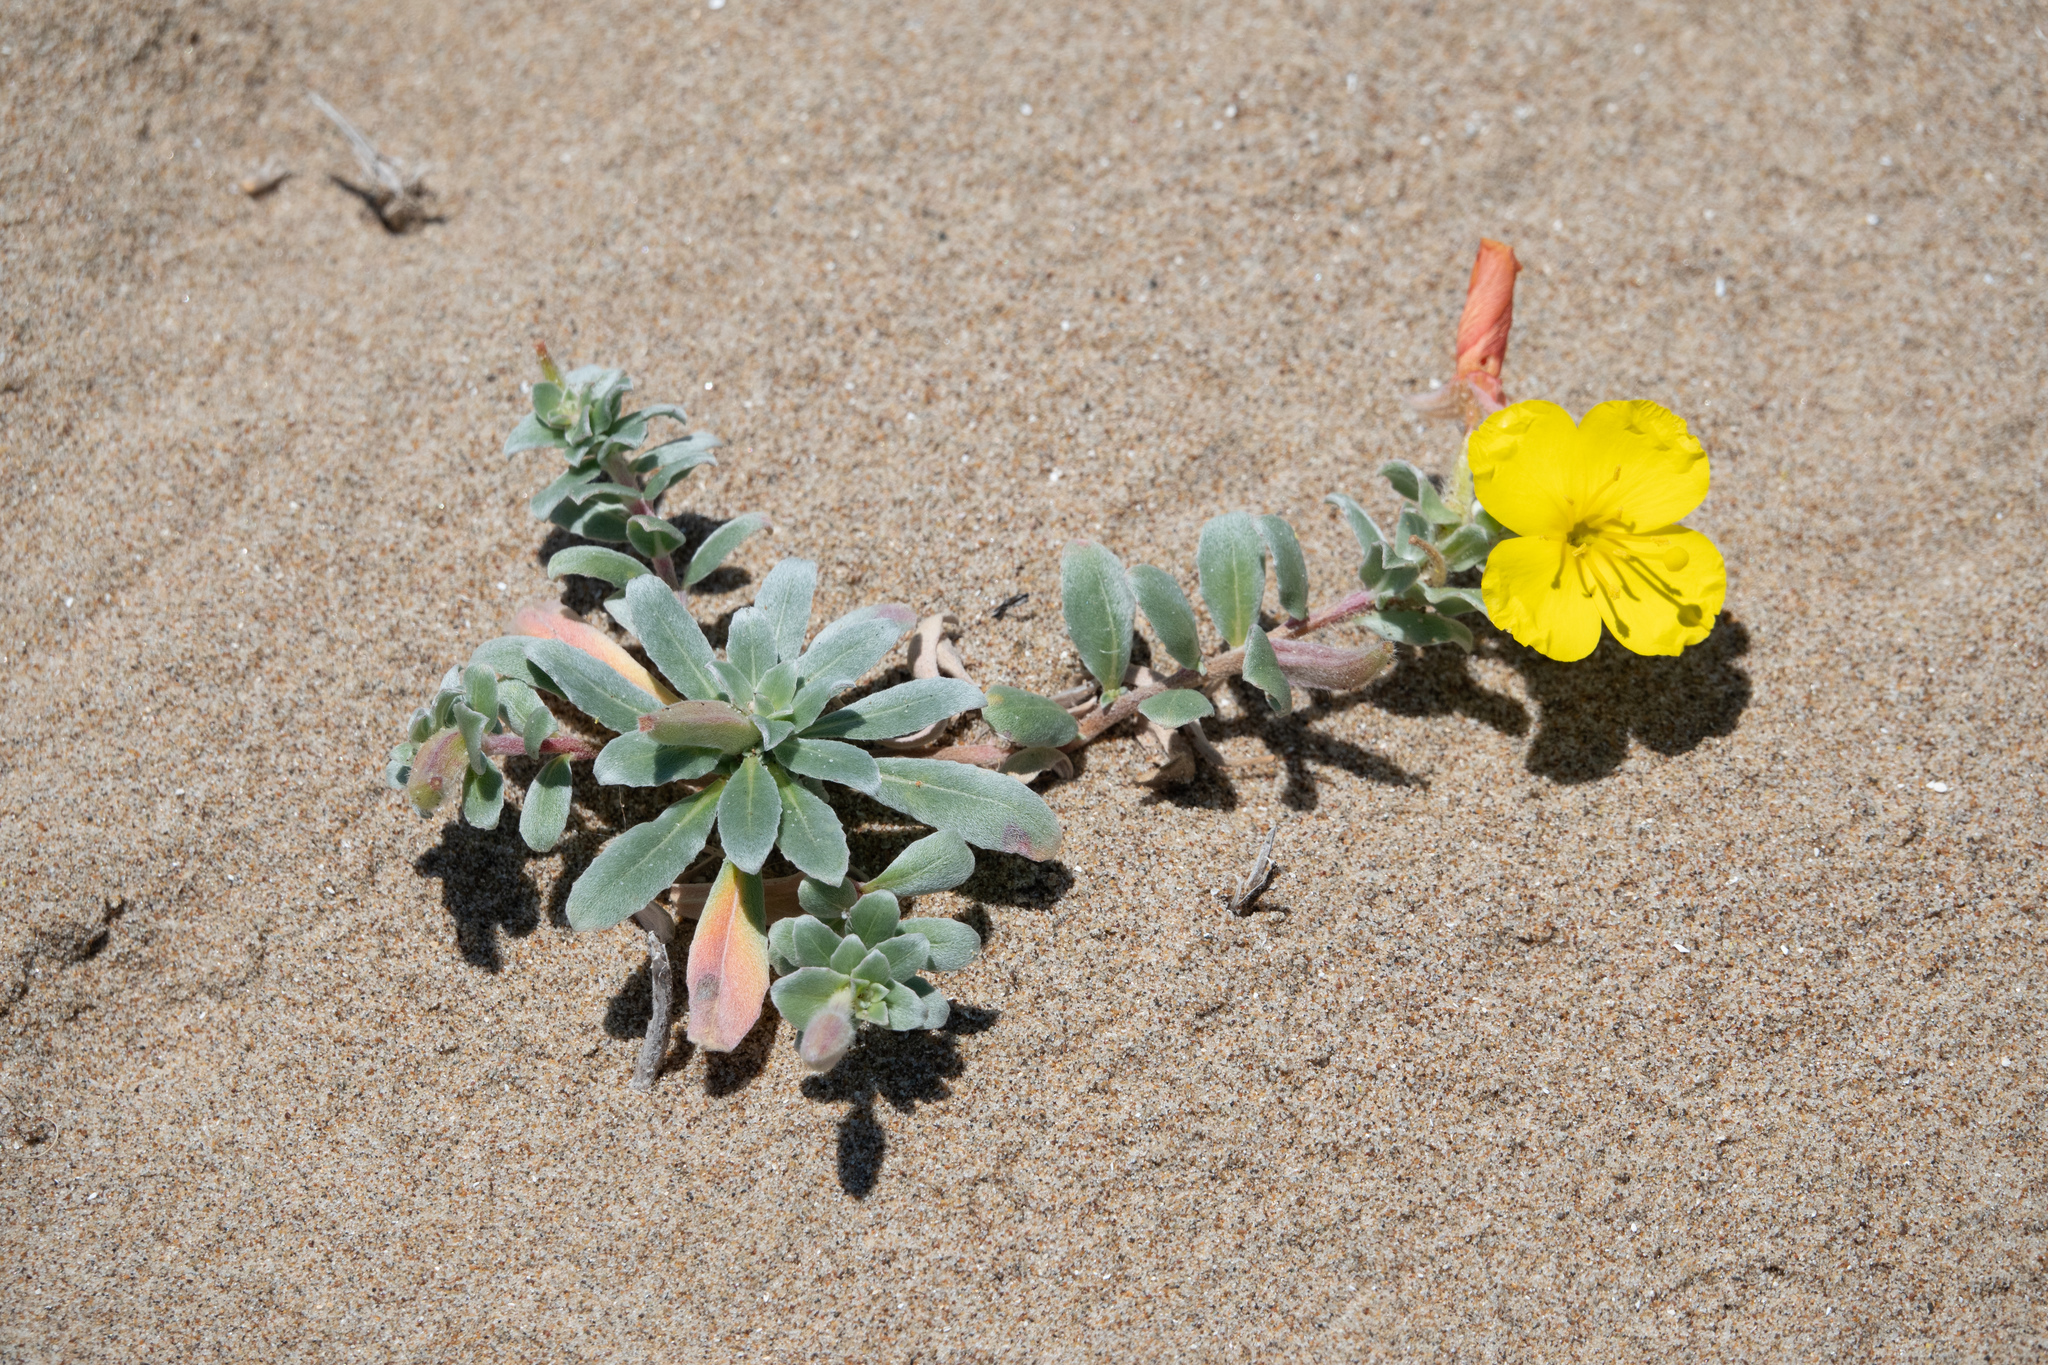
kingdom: Plantae
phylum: Tracheophyta
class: Magnoliopsida
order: Myrtales
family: Onagraceae
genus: Camissoniopsis
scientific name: Camissoniopsis cheiranthifolia
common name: Beach suncup
